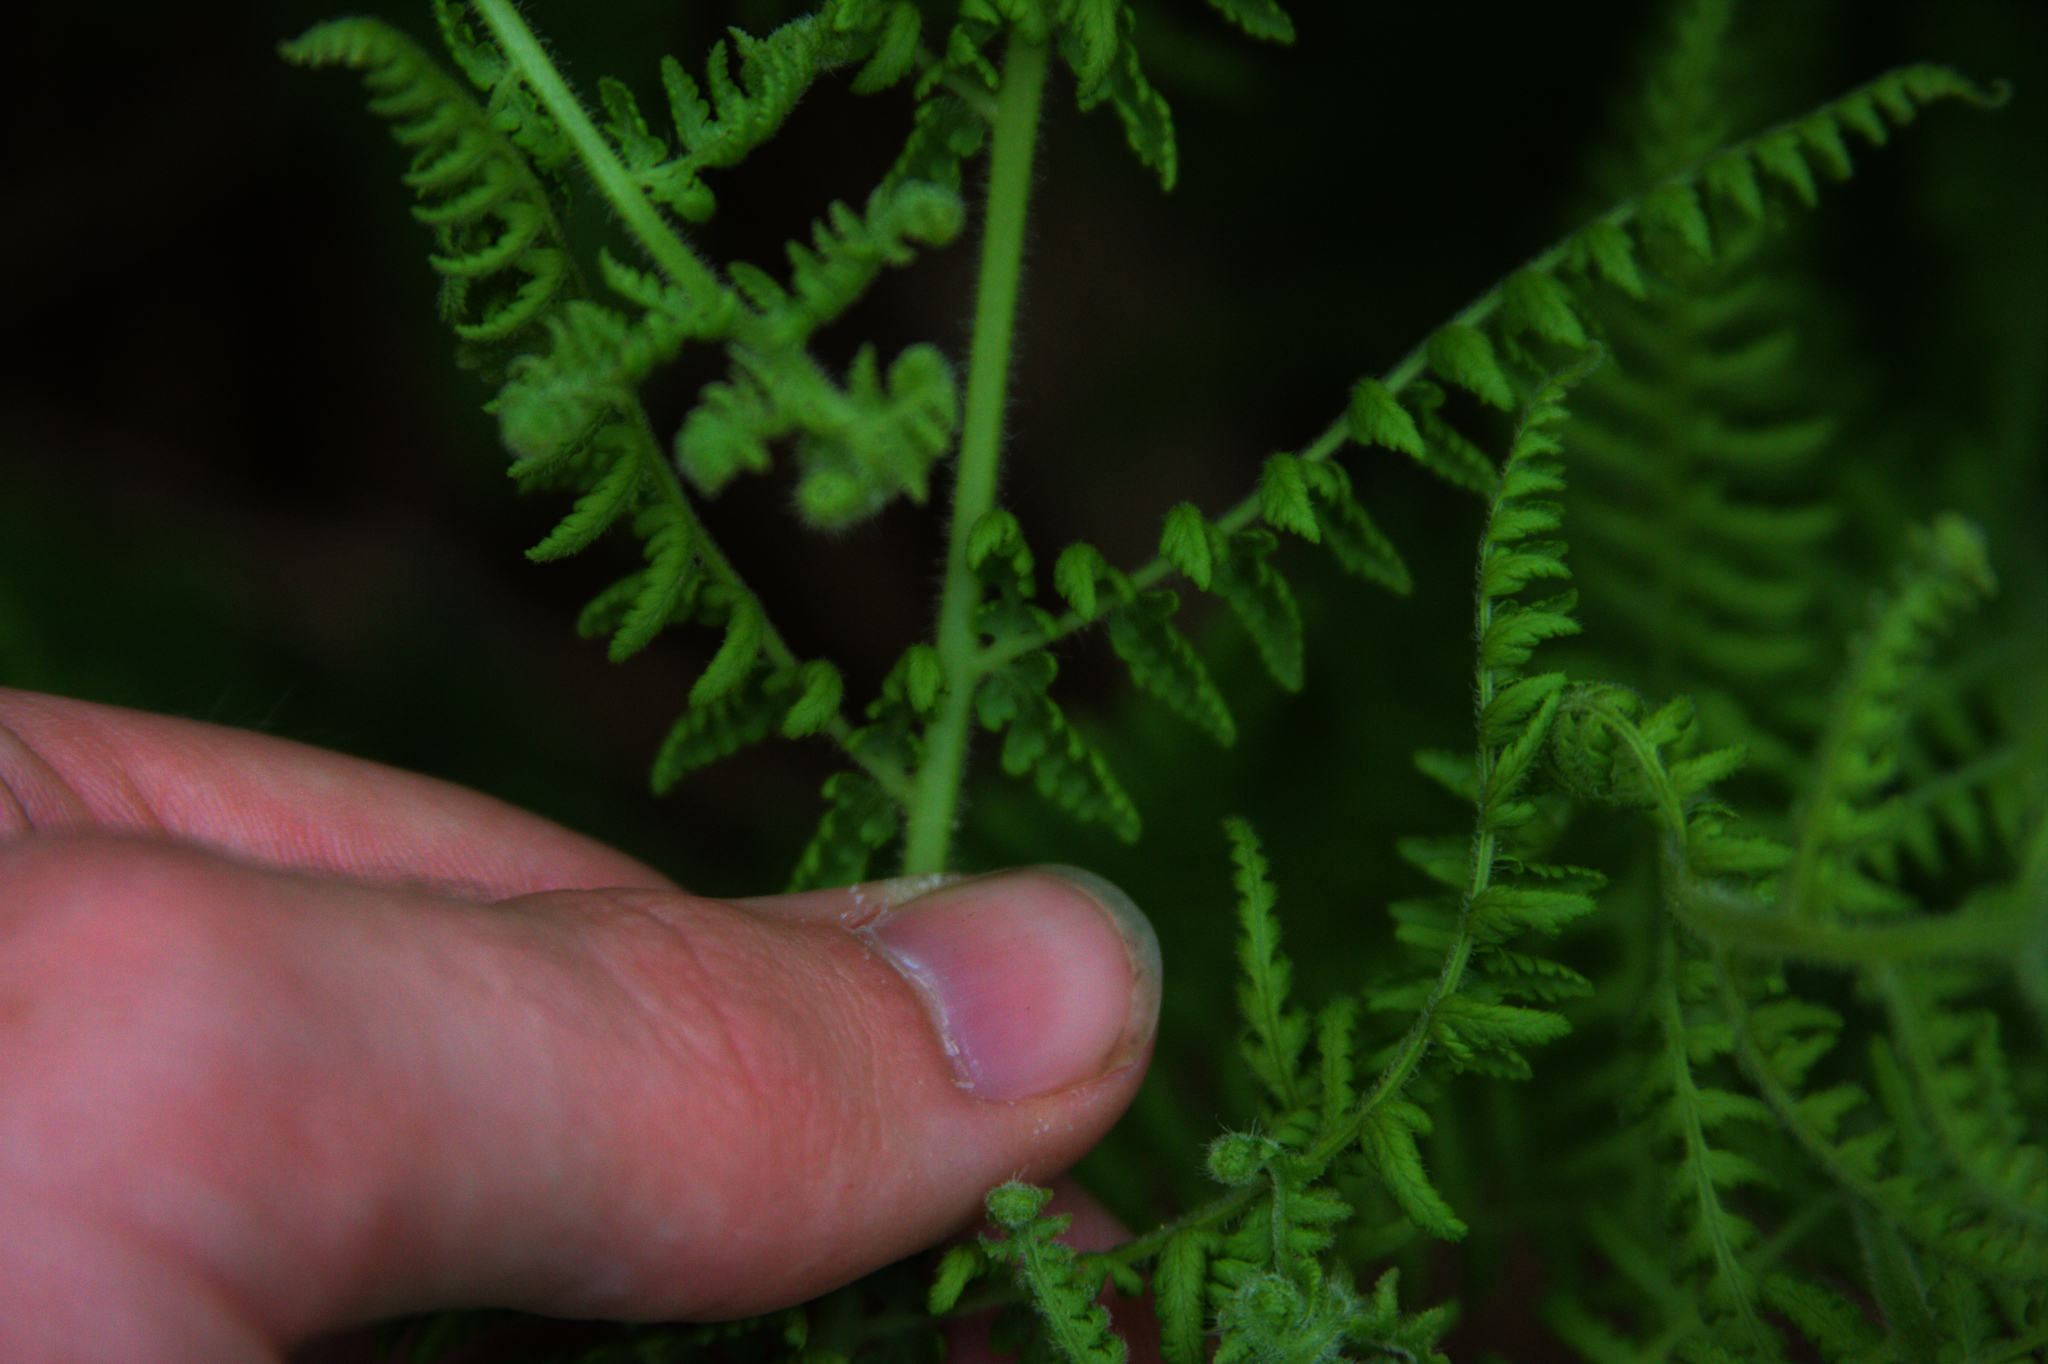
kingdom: Plantae
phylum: Tracheophyta
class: Polypodiopsida
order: Polypodiales
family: Dennstaedtiaceae
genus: Sitobolium
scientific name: Sitobolium punctilobum
